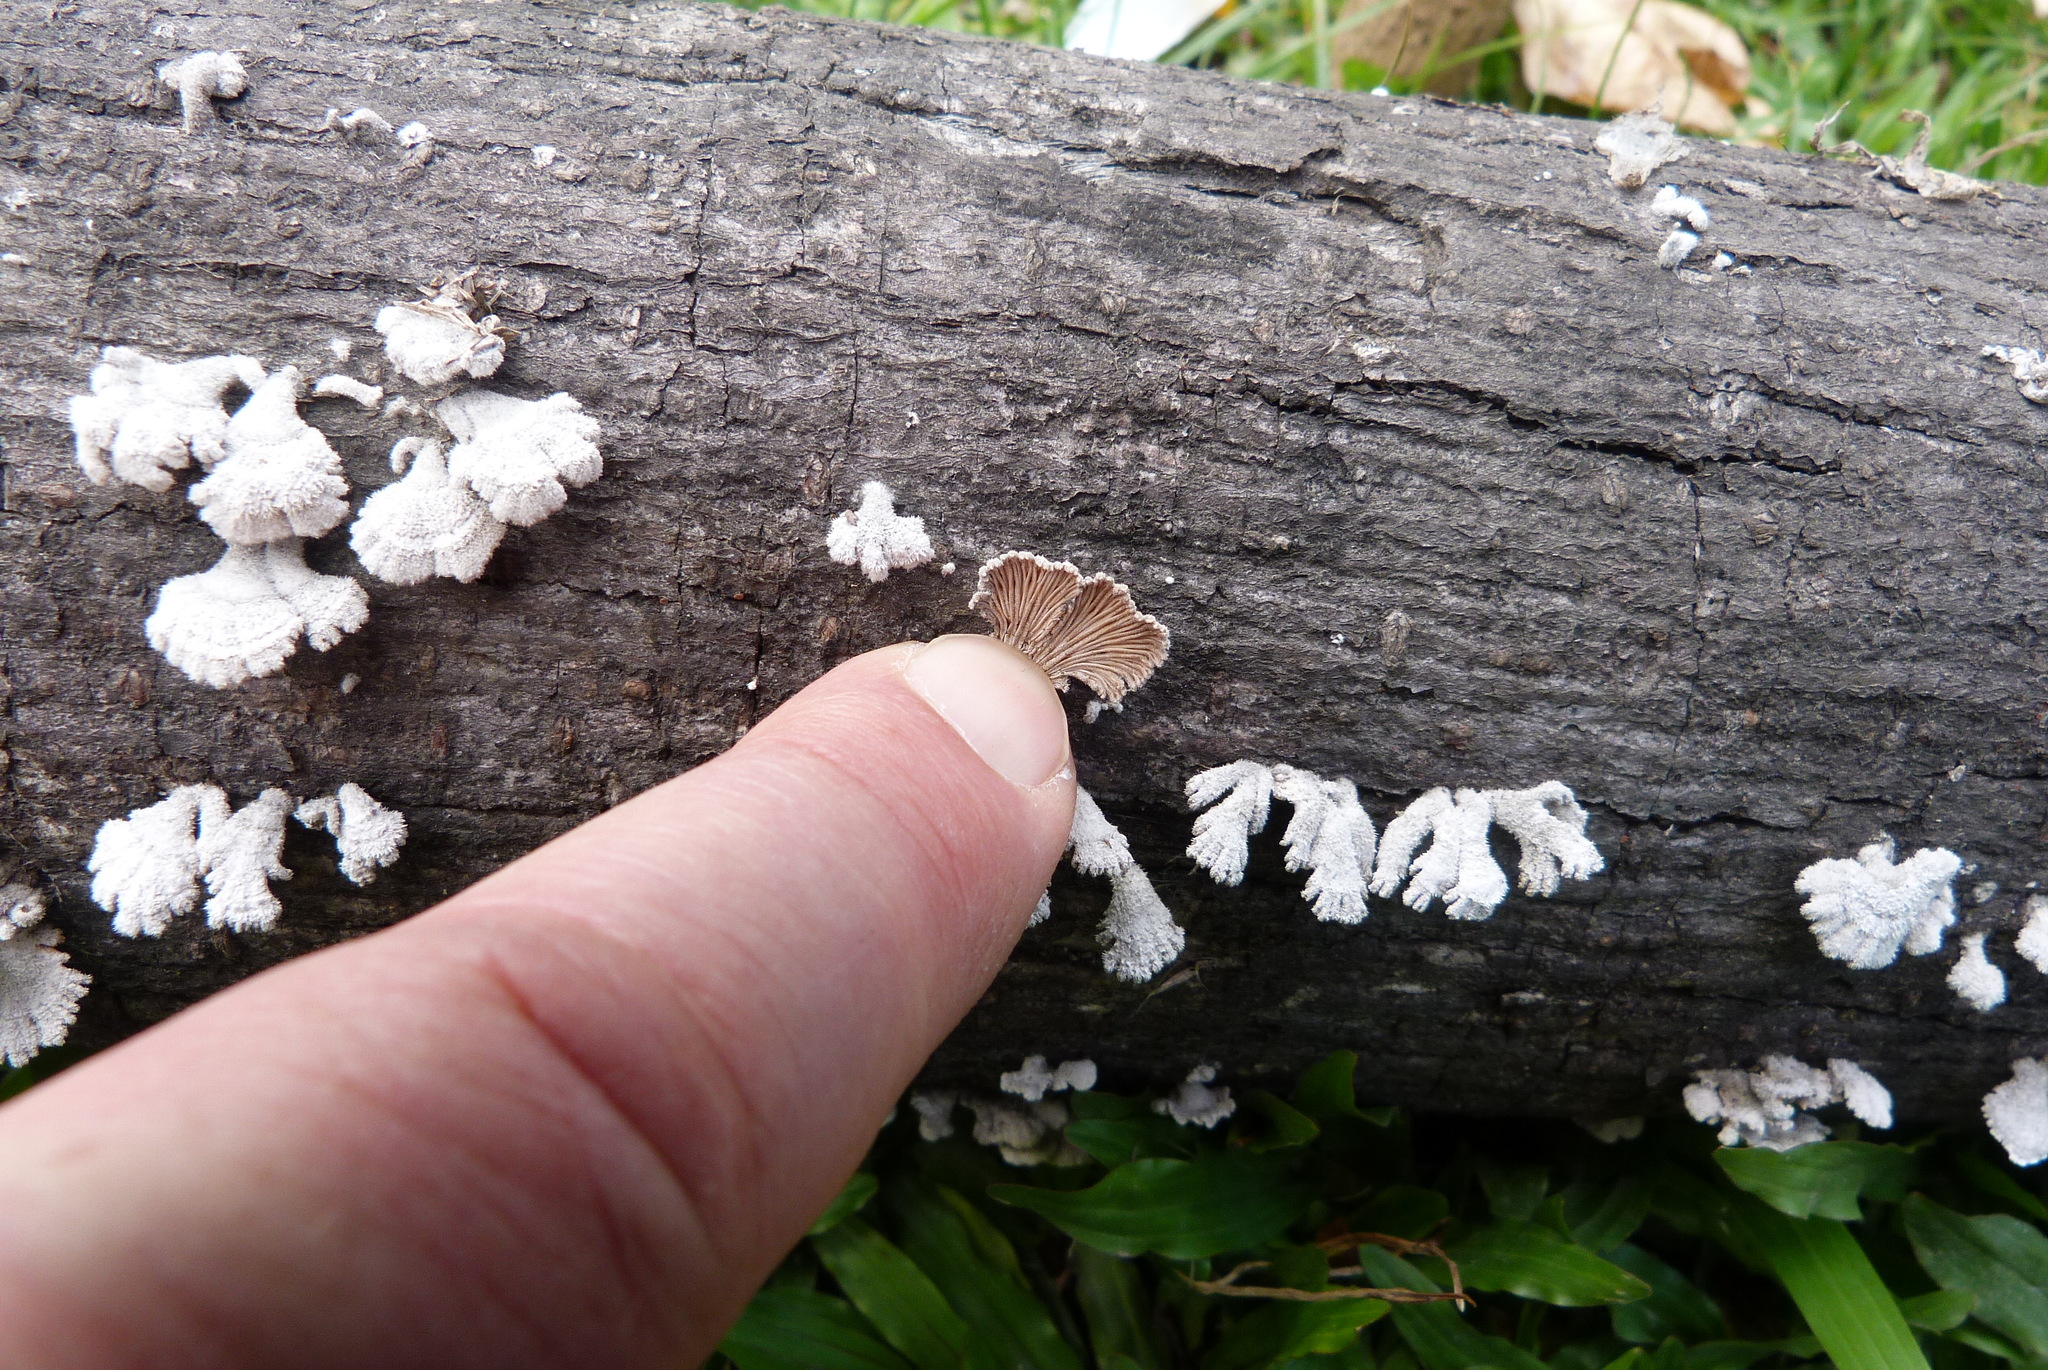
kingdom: Fungi
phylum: Basidiomycota
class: Agaricomycetes
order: Agaricales
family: Schizophyllaceae
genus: Schizophyllum
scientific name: Schizophyllum commune
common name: Common porecrust
